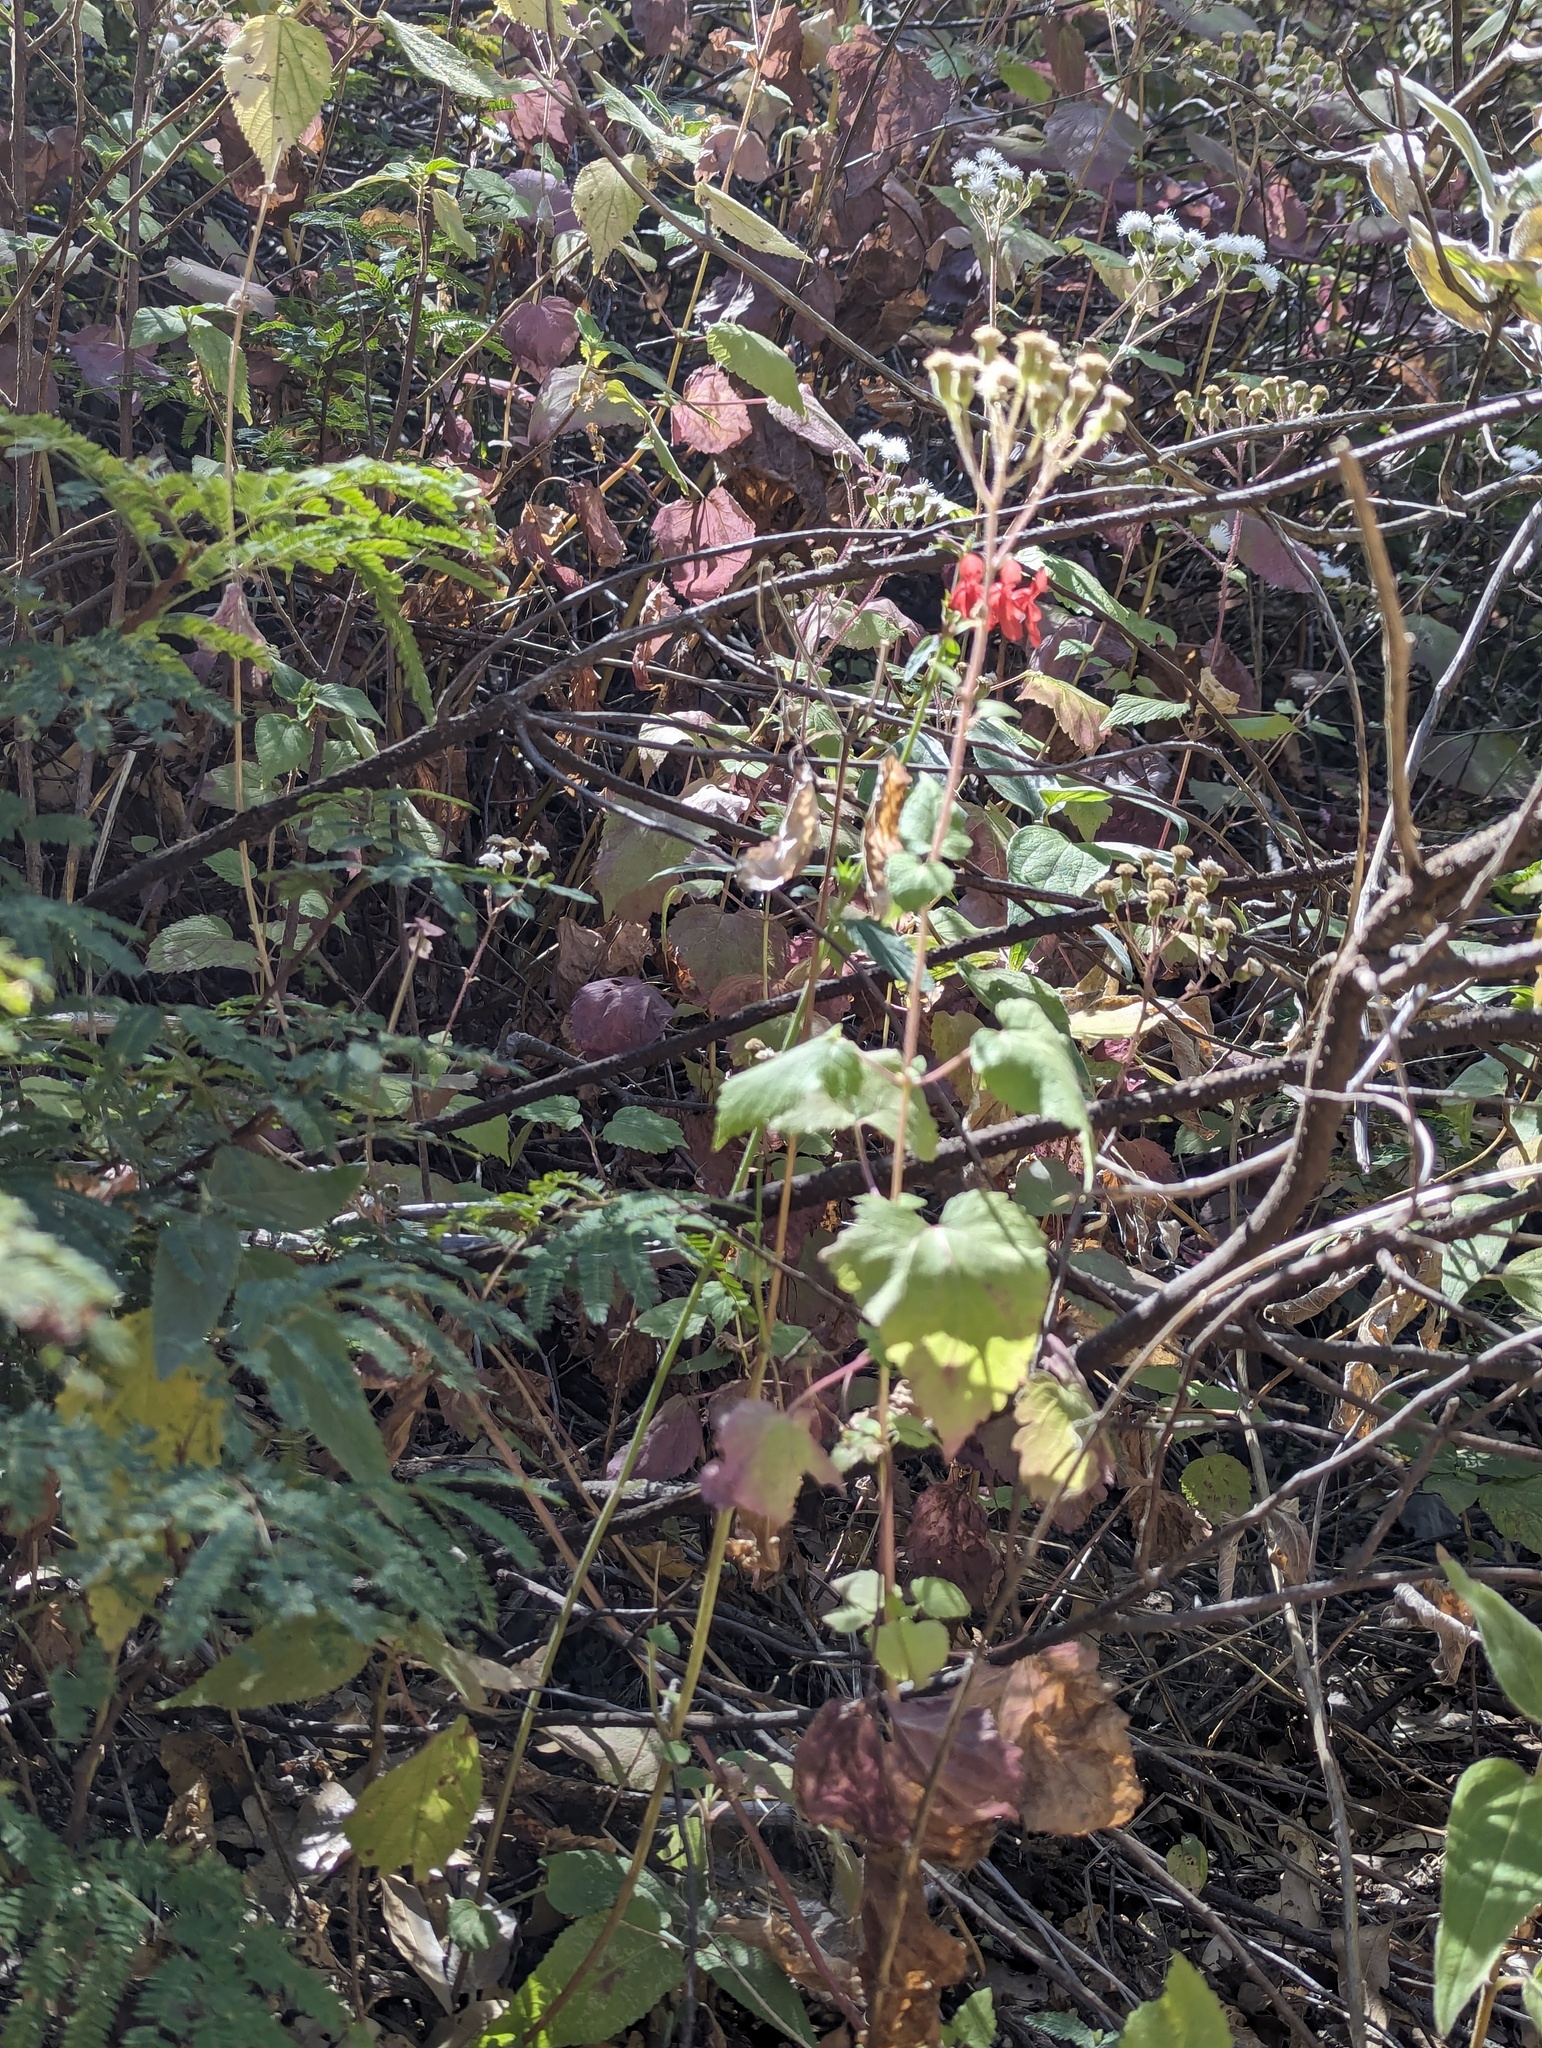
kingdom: Plantae
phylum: Tracheophyta
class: Magnoliopsida
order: Lamiales
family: Lamiaceae
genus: Stachys
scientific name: Stachys coccinea
